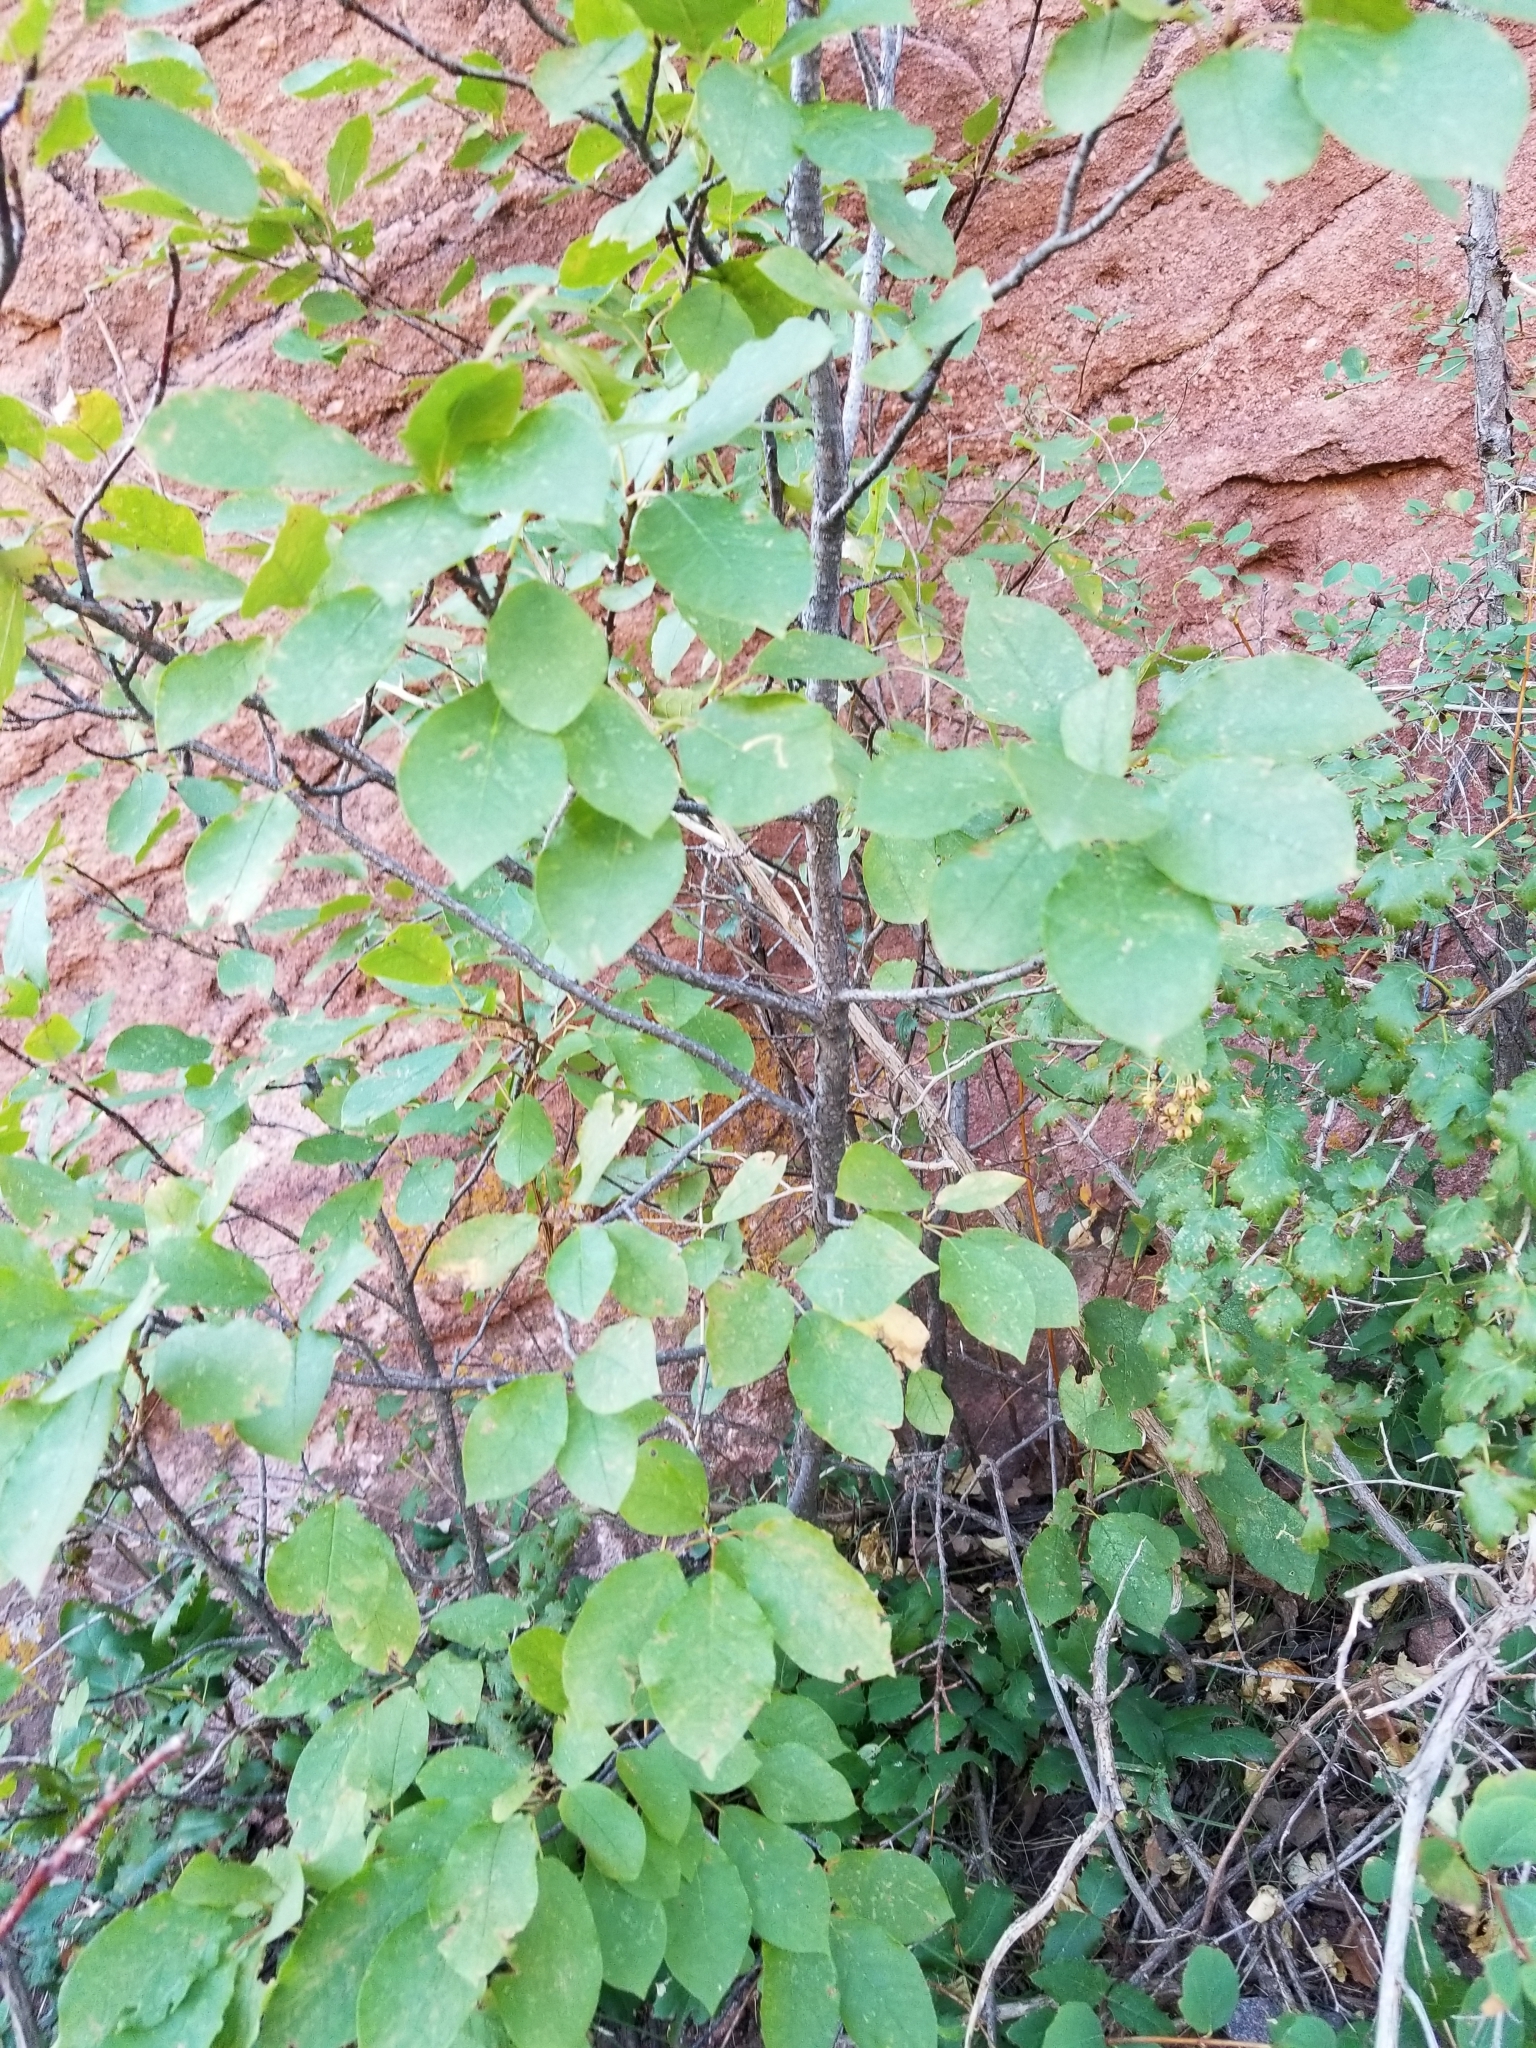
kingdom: Plantae
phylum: Tracheophyta
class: Magnoliopsida
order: Rosales
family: Rosaceae
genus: Prunus
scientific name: Prunus virginiana
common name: Chokecherry
